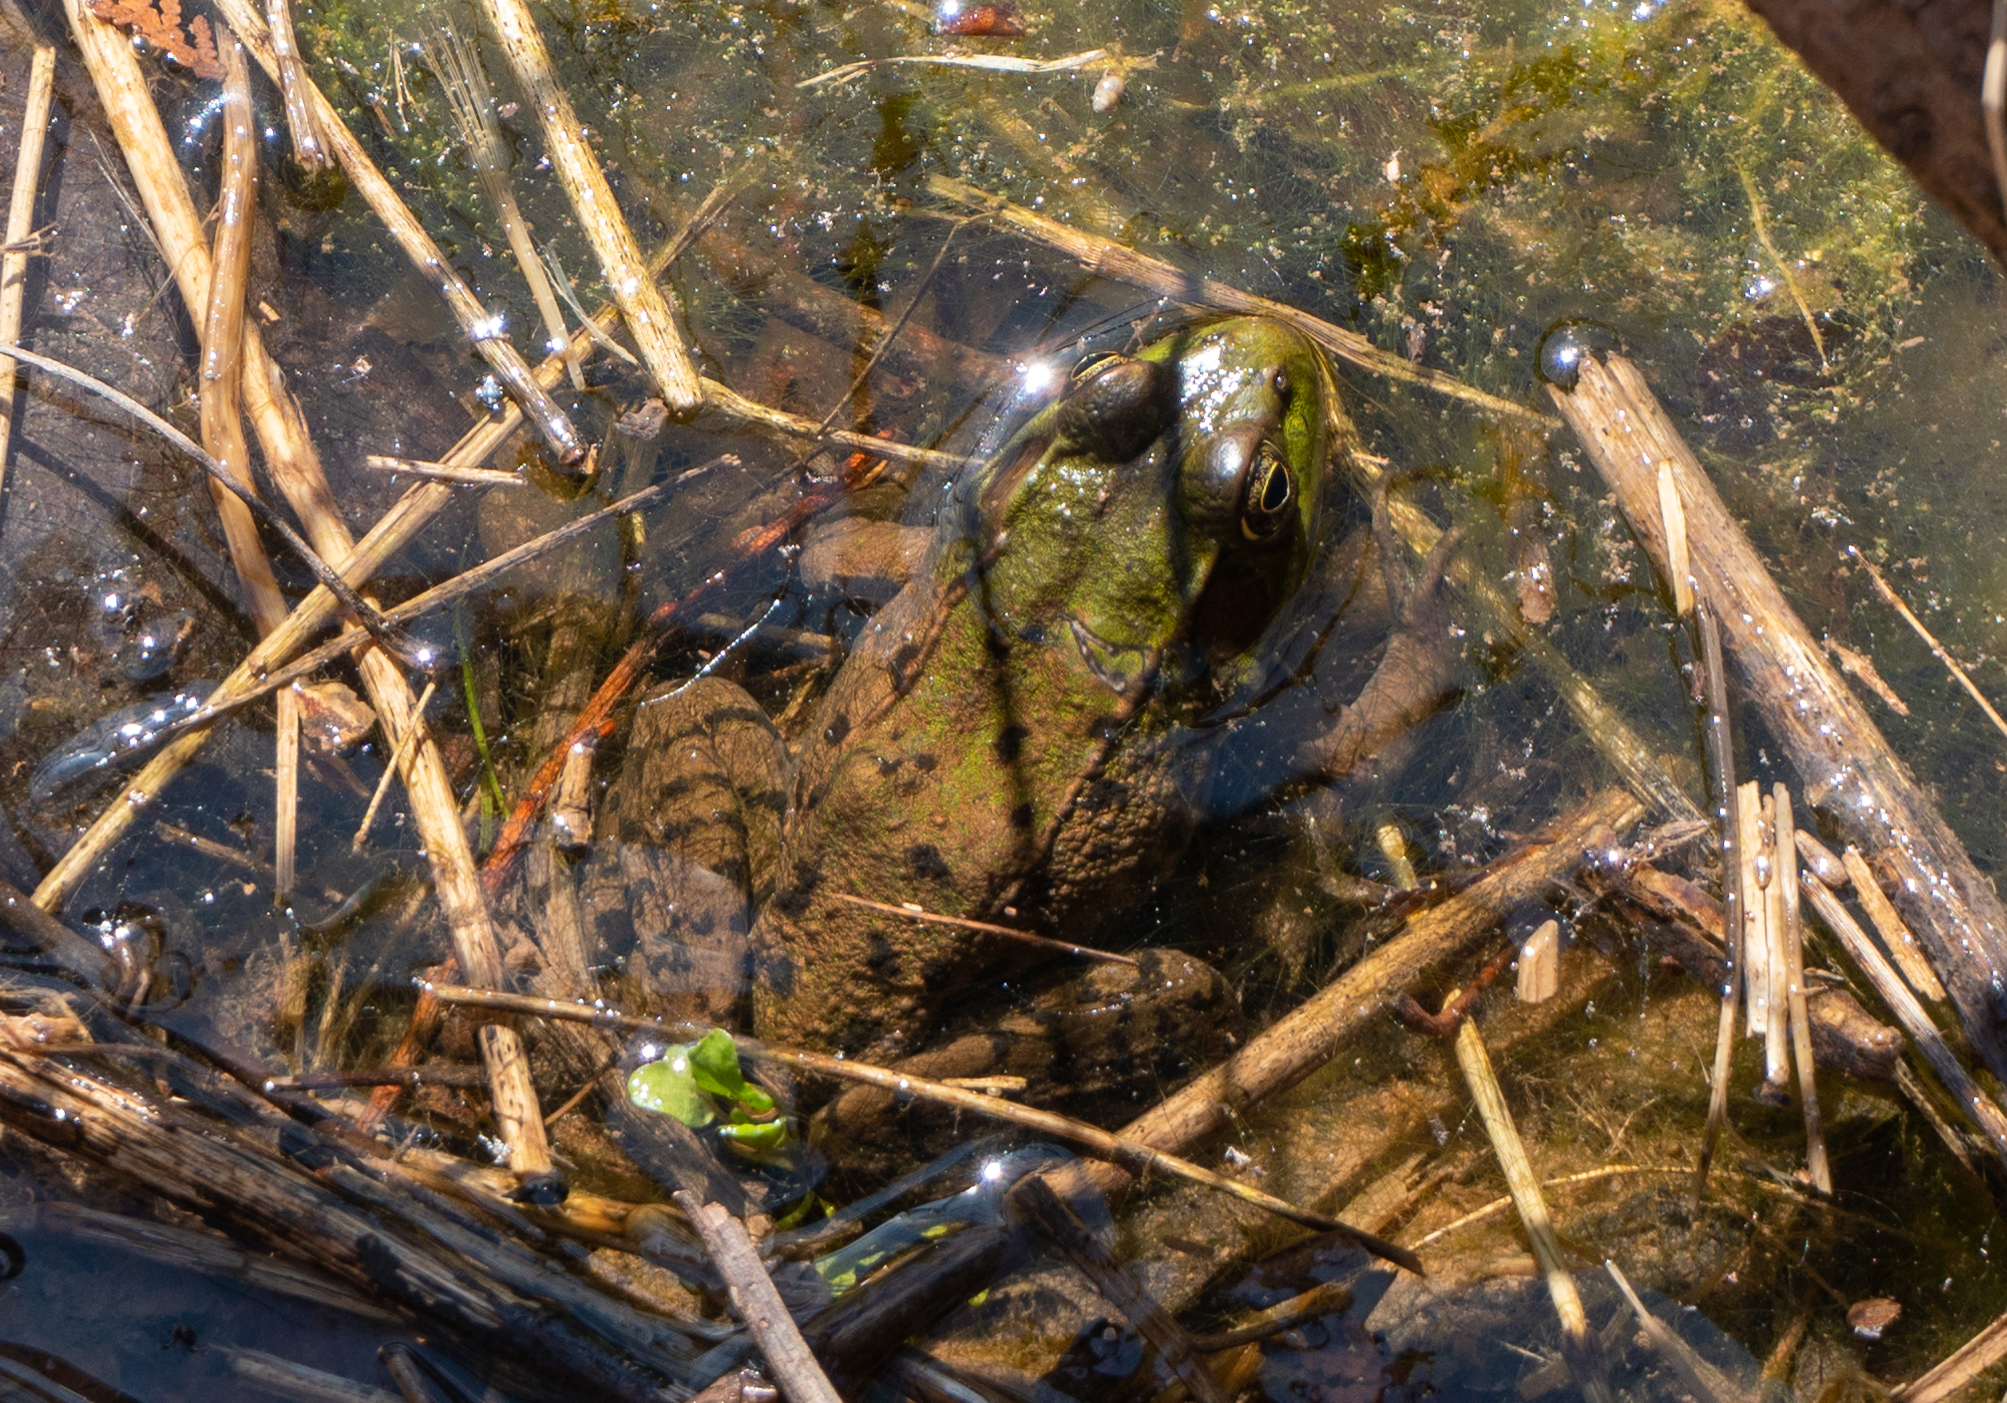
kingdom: Animalia
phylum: Chordata
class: Amphibia
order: Anura
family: Ranidae
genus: Lithobates
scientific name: Lithobates clamitans
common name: Green frog
